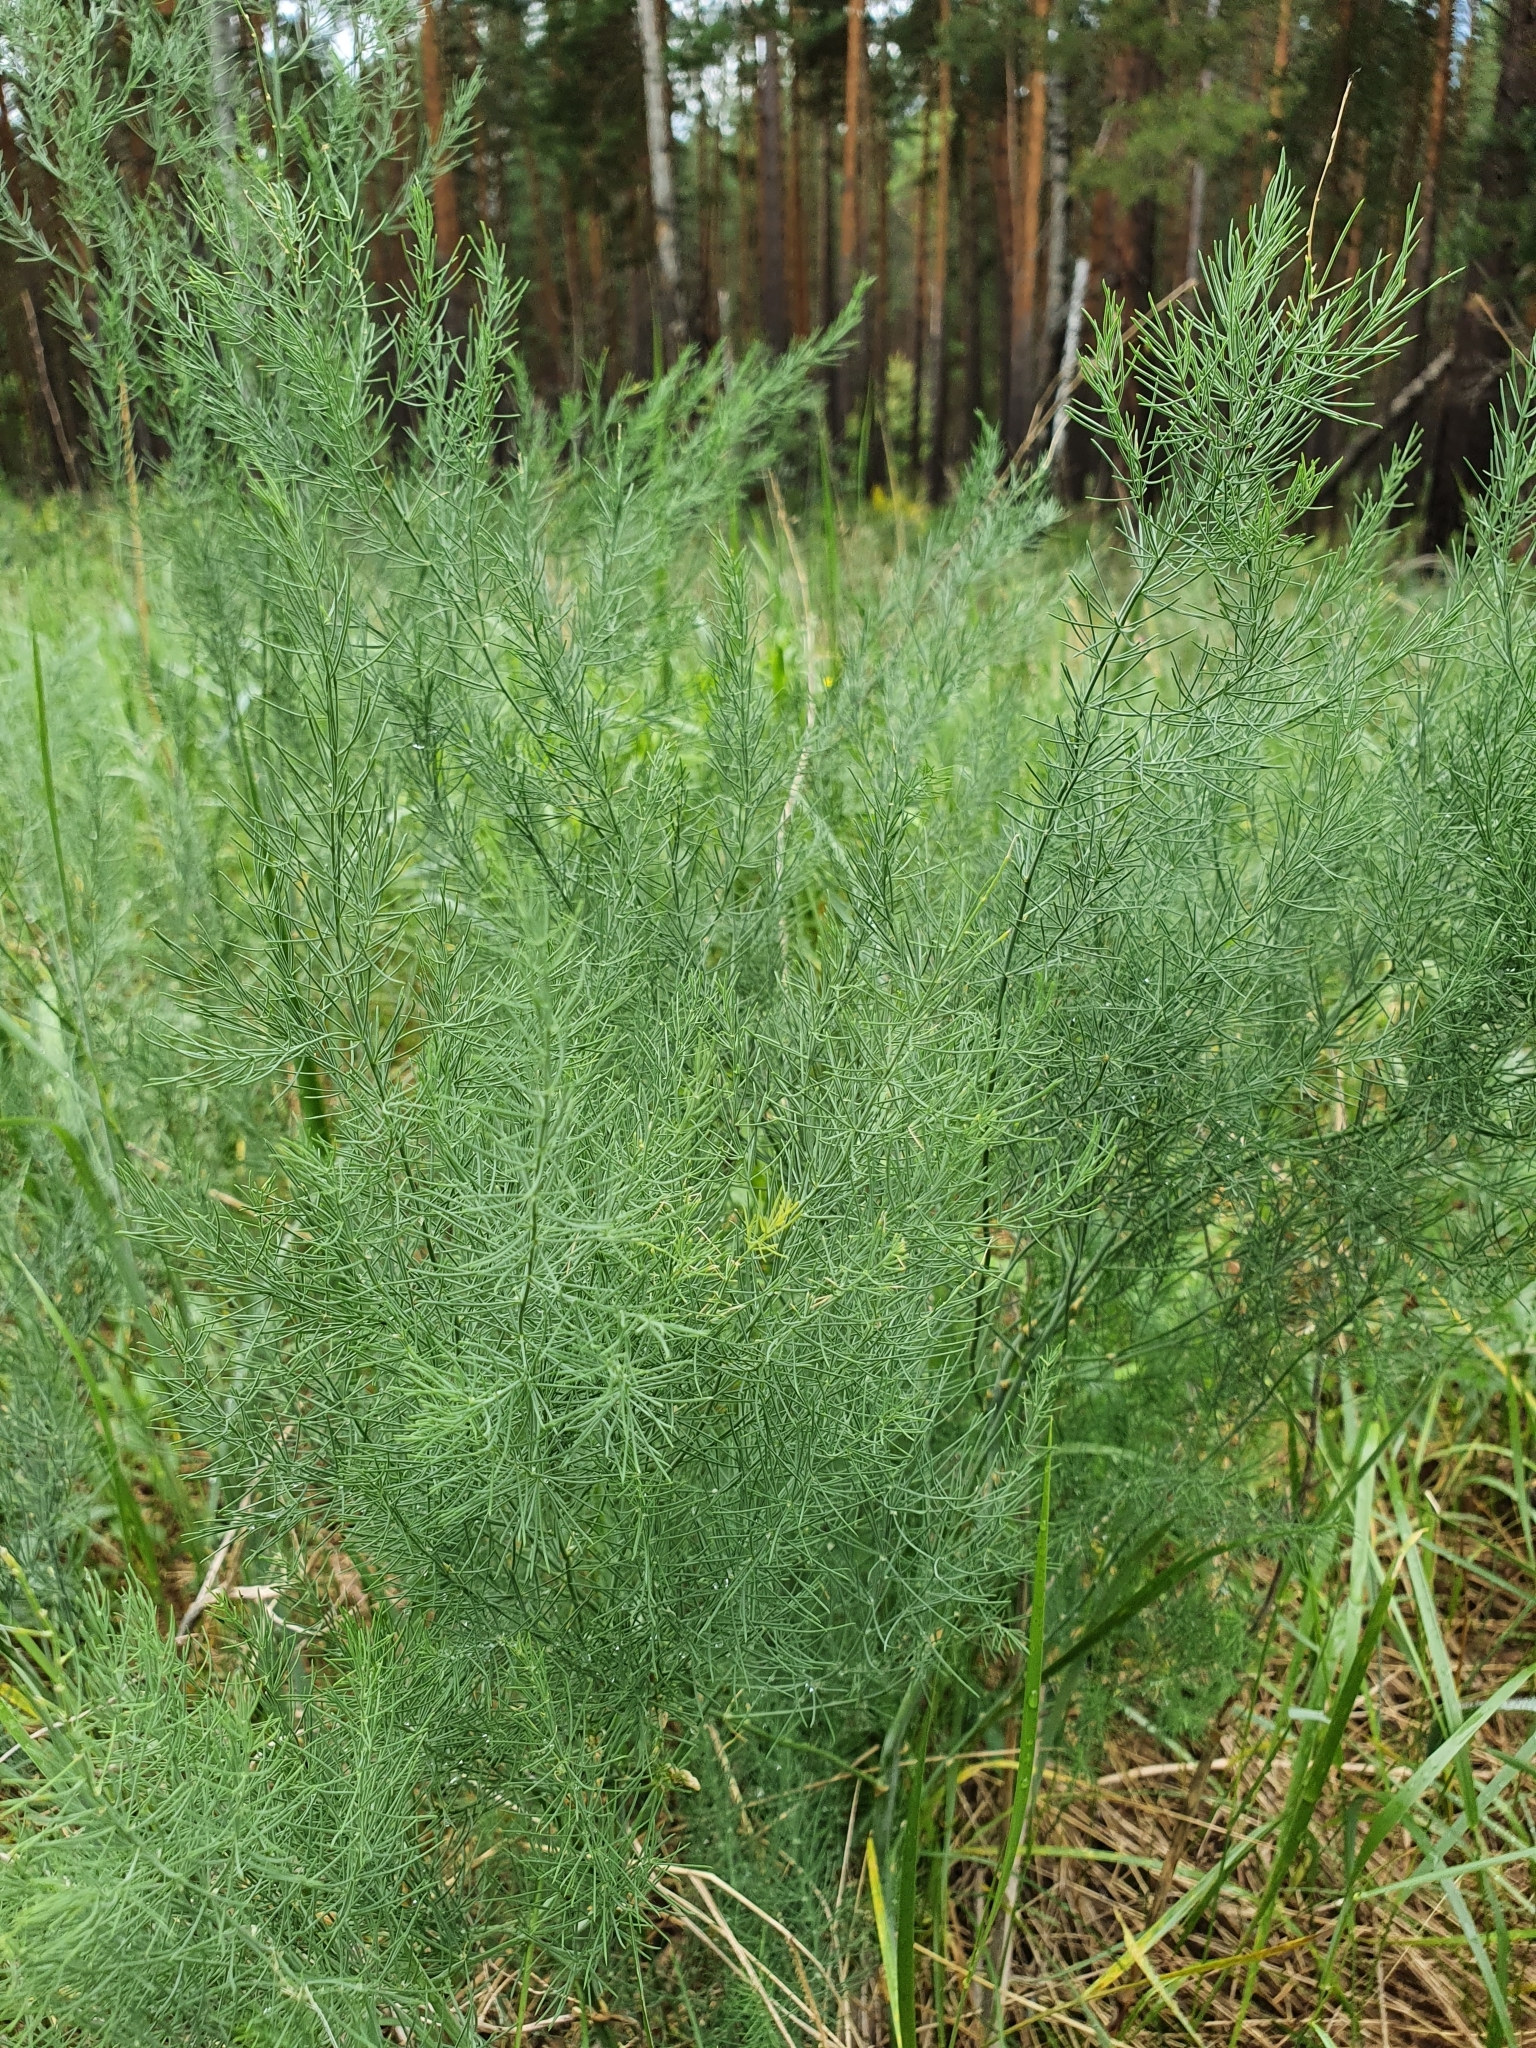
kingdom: Plantae
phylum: Tracheophyta
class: Liliopsida
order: Asparagales
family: Asparagaceae
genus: Asparagus
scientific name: Asparagus officinalis
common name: Garden asparagus
